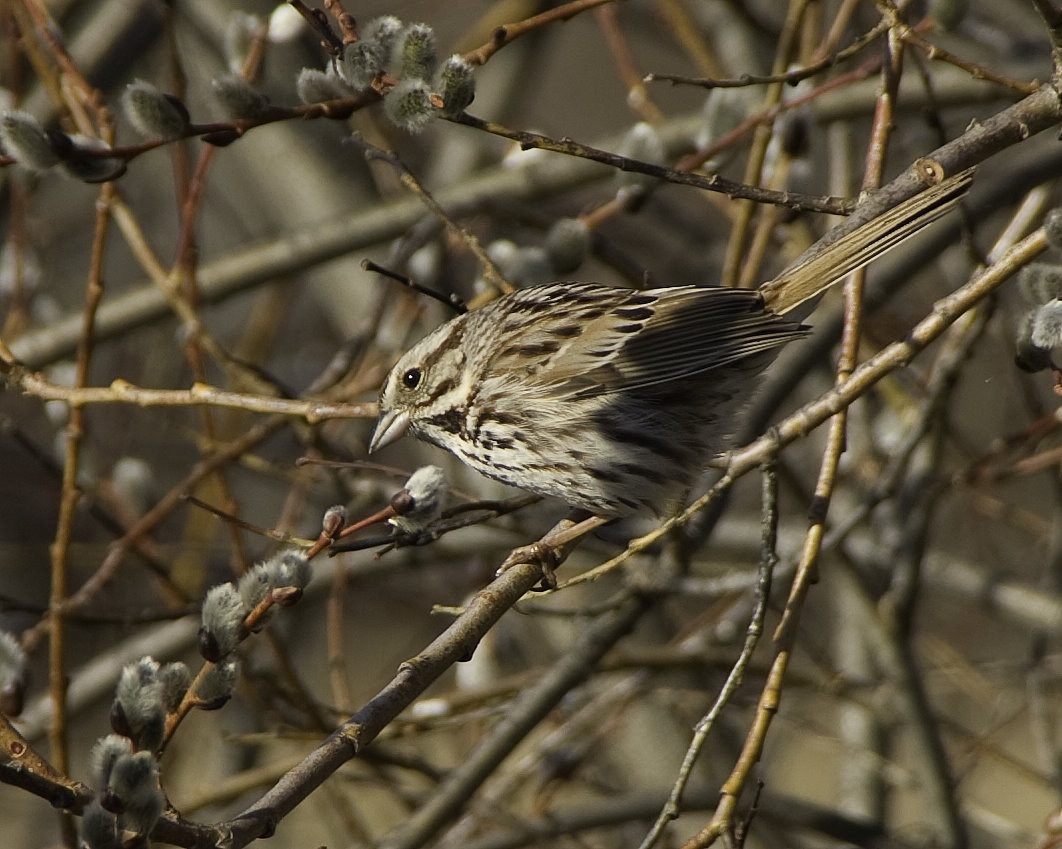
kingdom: Animalia
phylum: Chordata
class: Aves
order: Passeriformes
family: Passerellidae
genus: Melospiza
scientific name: Melospiza melodia
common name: Song sparrow
